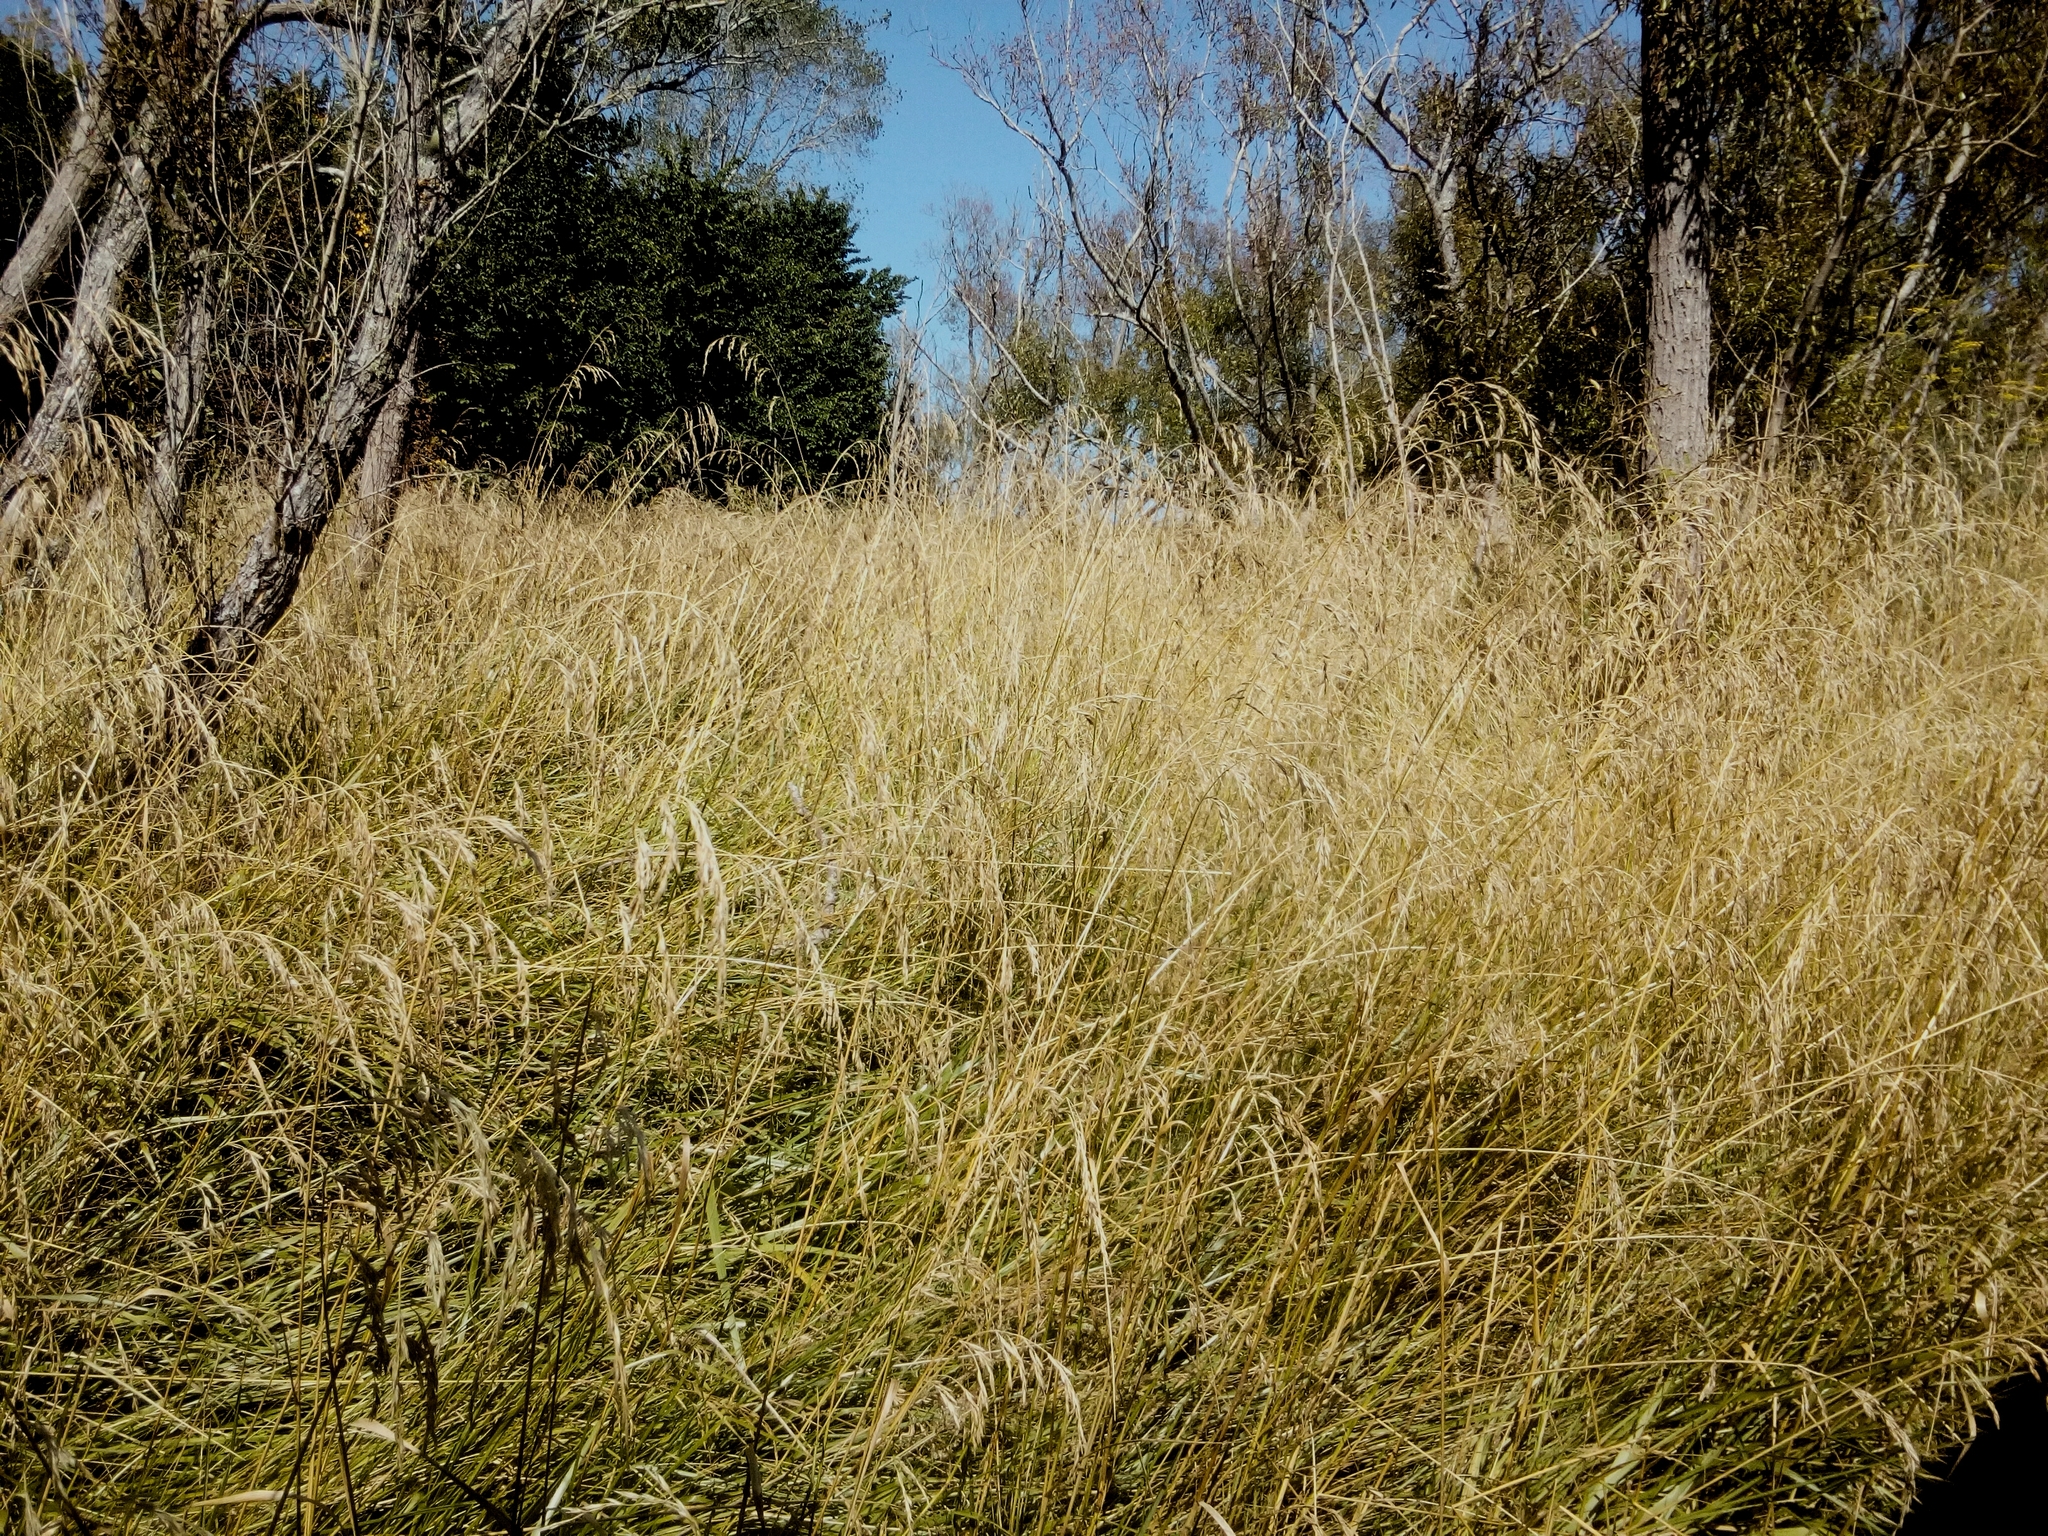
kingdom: Plantae
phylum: Tracheophyta
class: Liliopsida
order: Poales
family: Poaceae
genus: Lolium
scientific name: Lolium arundinaceum
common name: Reed fescue
